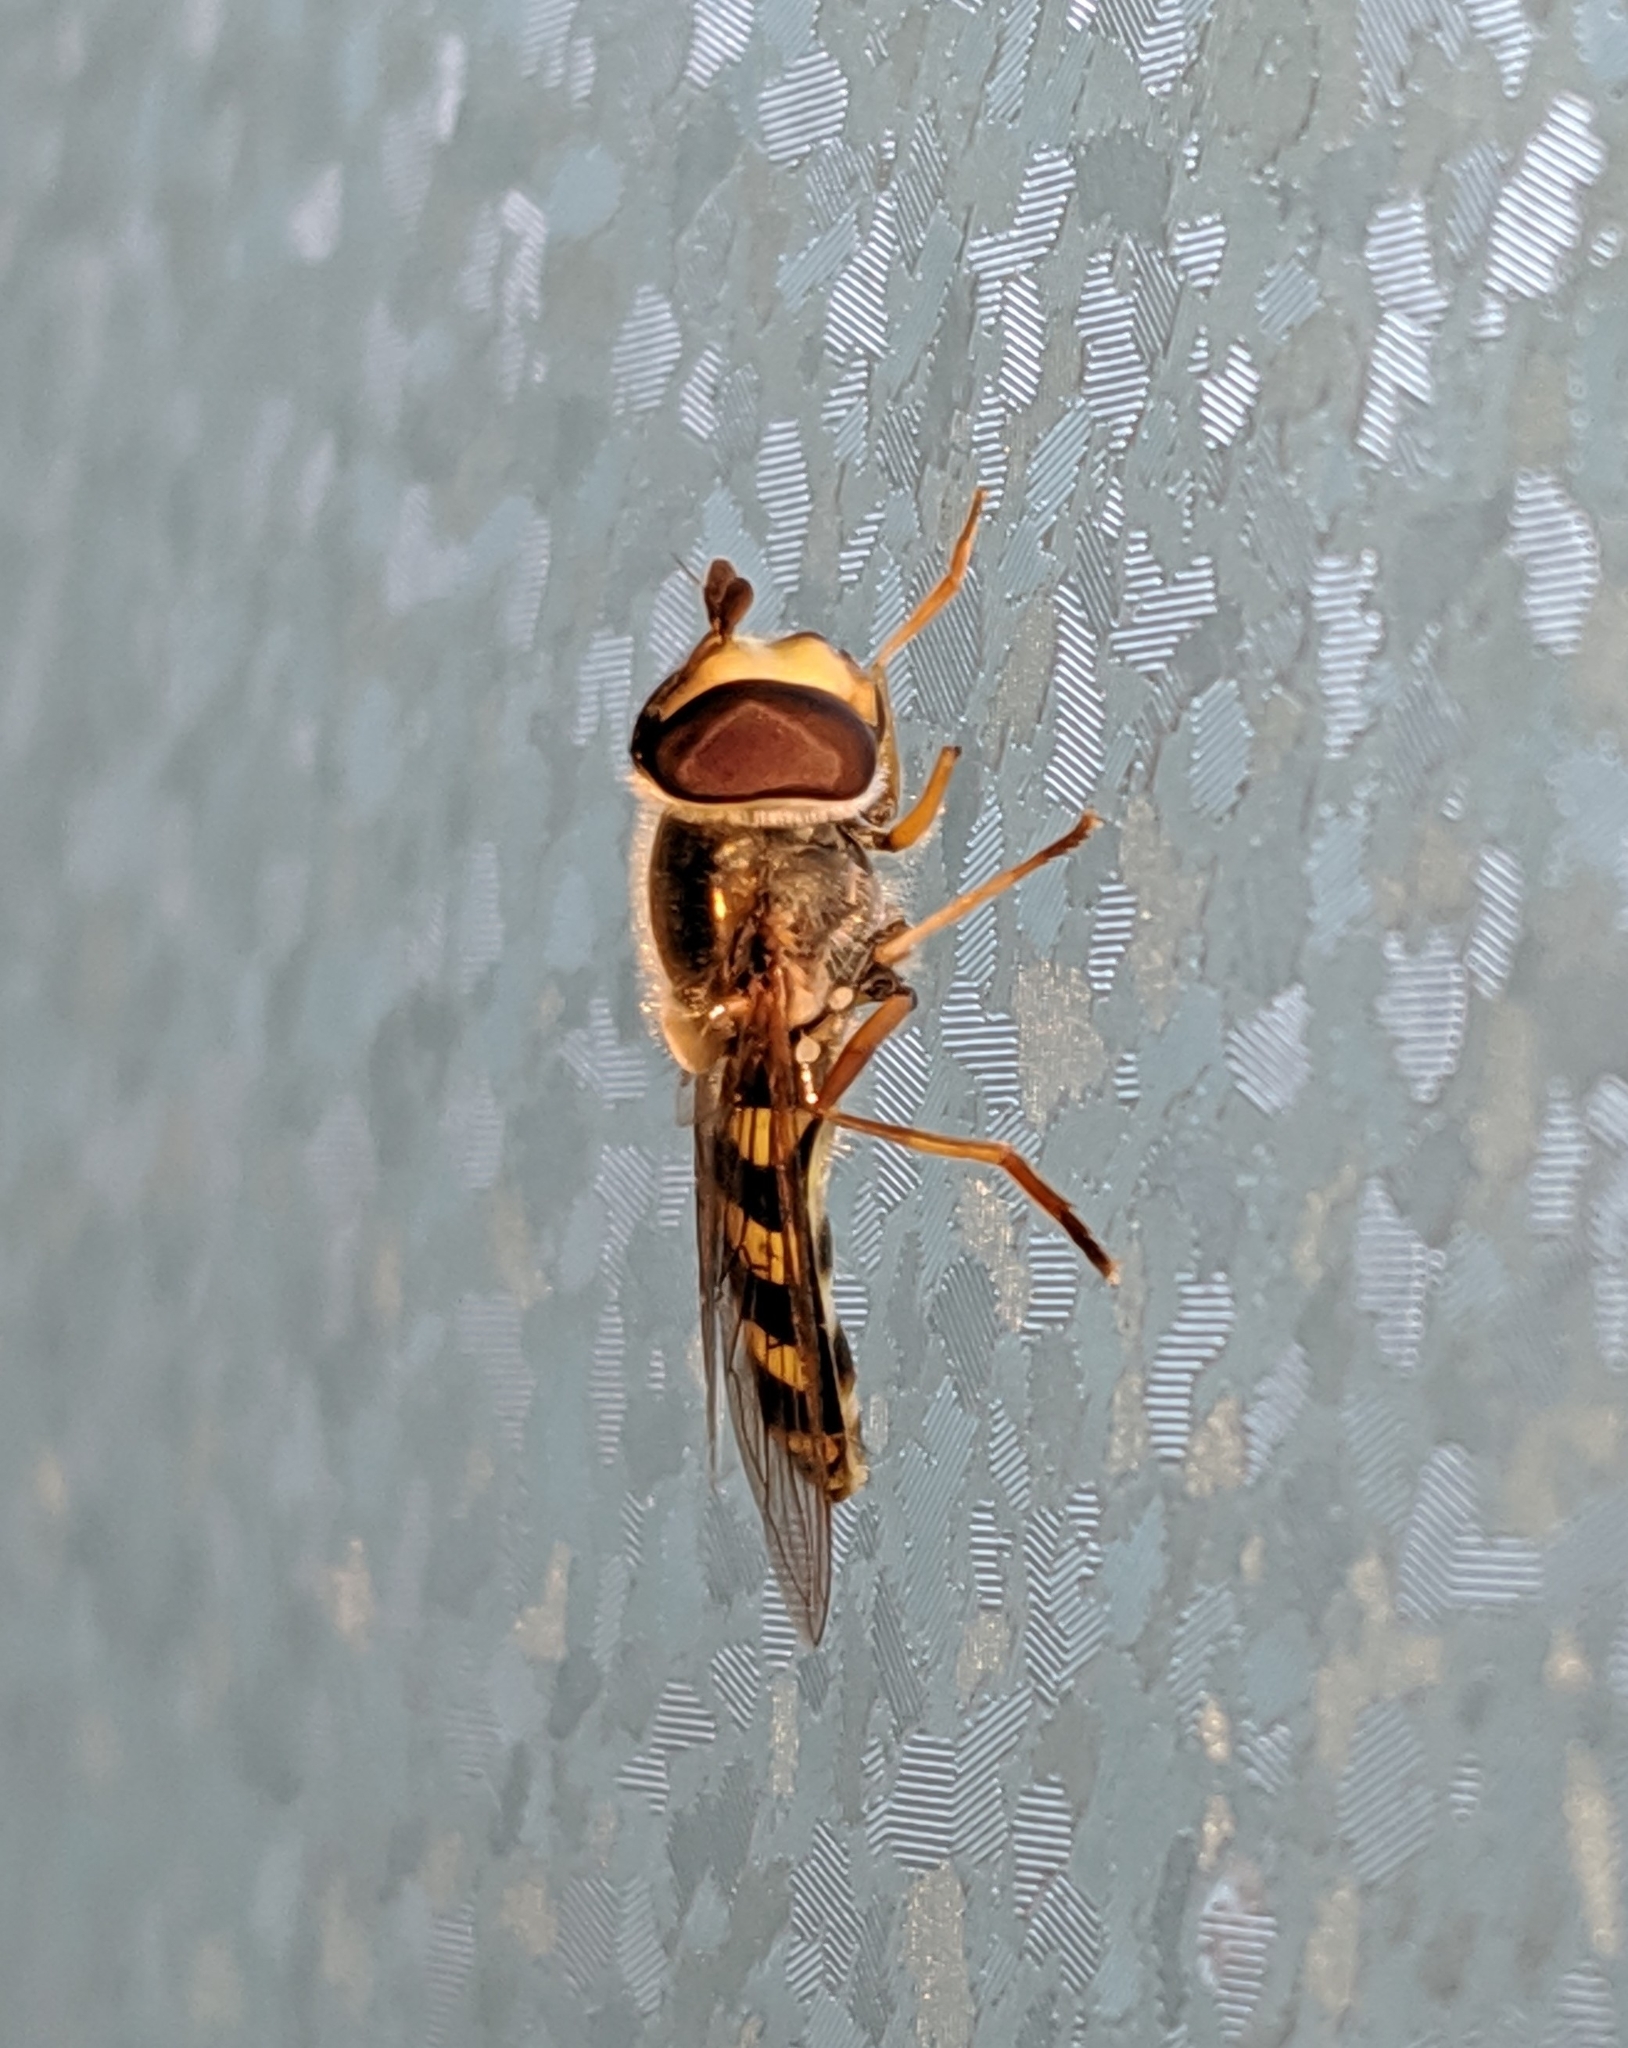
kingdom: Animalia
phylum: Arthropoda
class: Insecta
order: Diptera
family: Syrphidae
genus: Eupeodes
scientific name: Eupeodes fumipennis
